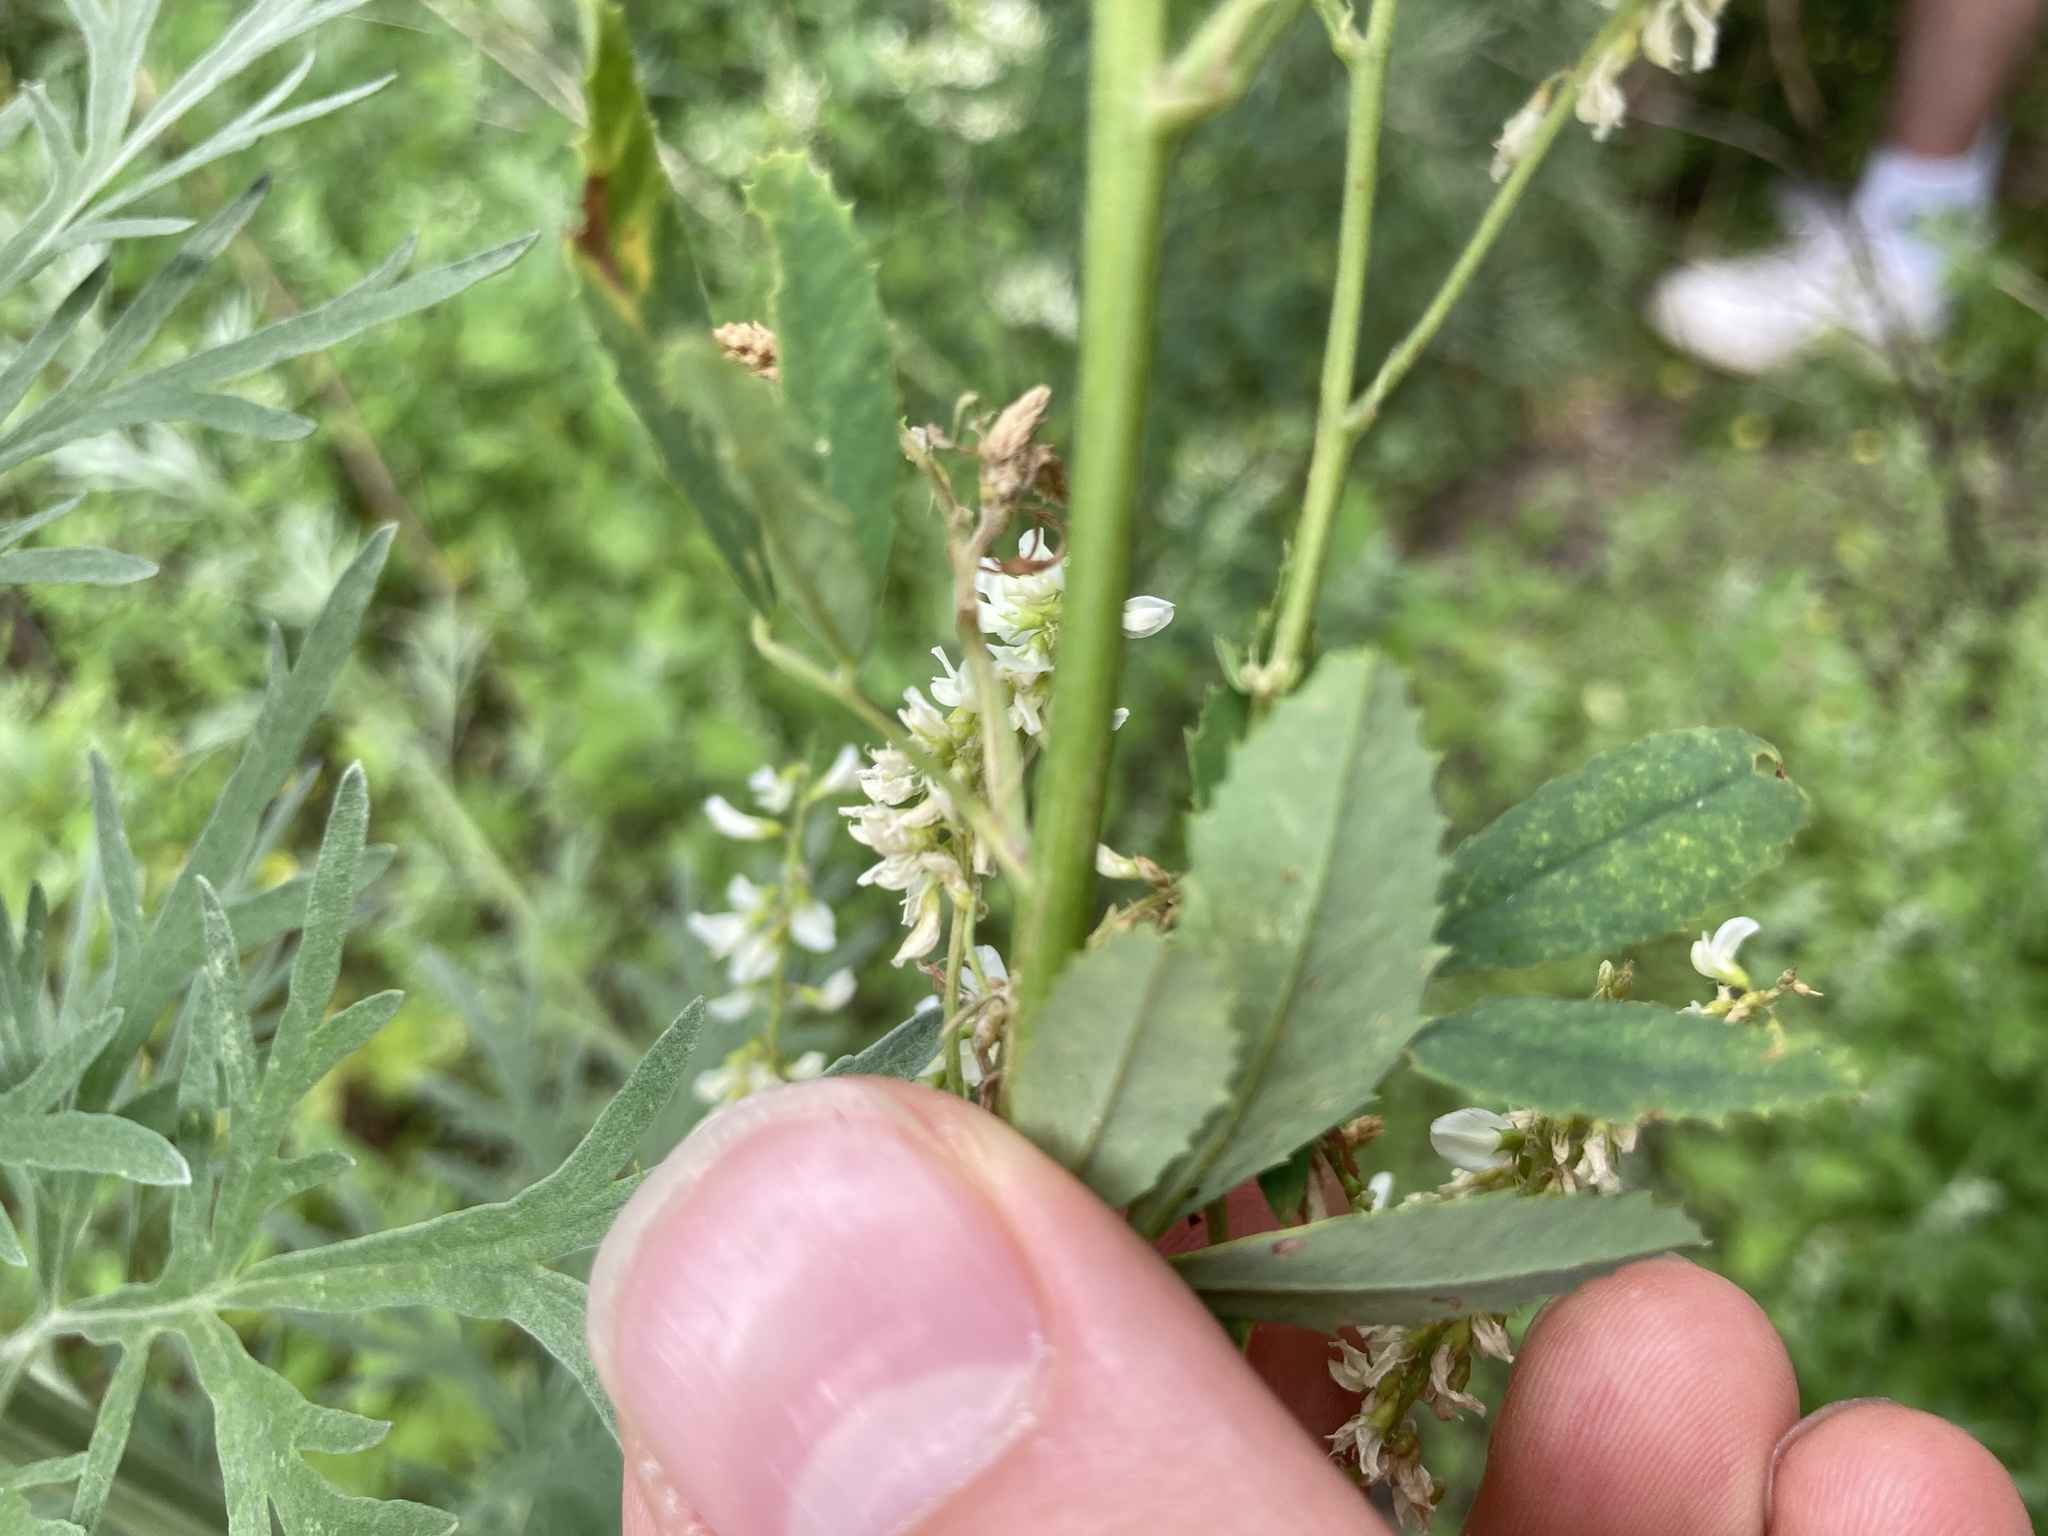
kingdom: Plantae
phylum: Tracheophyta
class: Magnoliopsida
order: Fabales
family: Fabaceae
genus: Melilotus
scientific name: Melilotus albus
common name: White melilot
